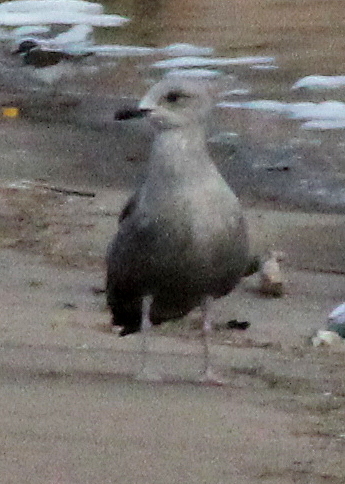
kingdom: Animalia
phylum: Chordata
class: Aves
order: Charadriiformes
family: Laridae
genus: Larus
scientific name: Larus argentatus
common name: Herring gull
